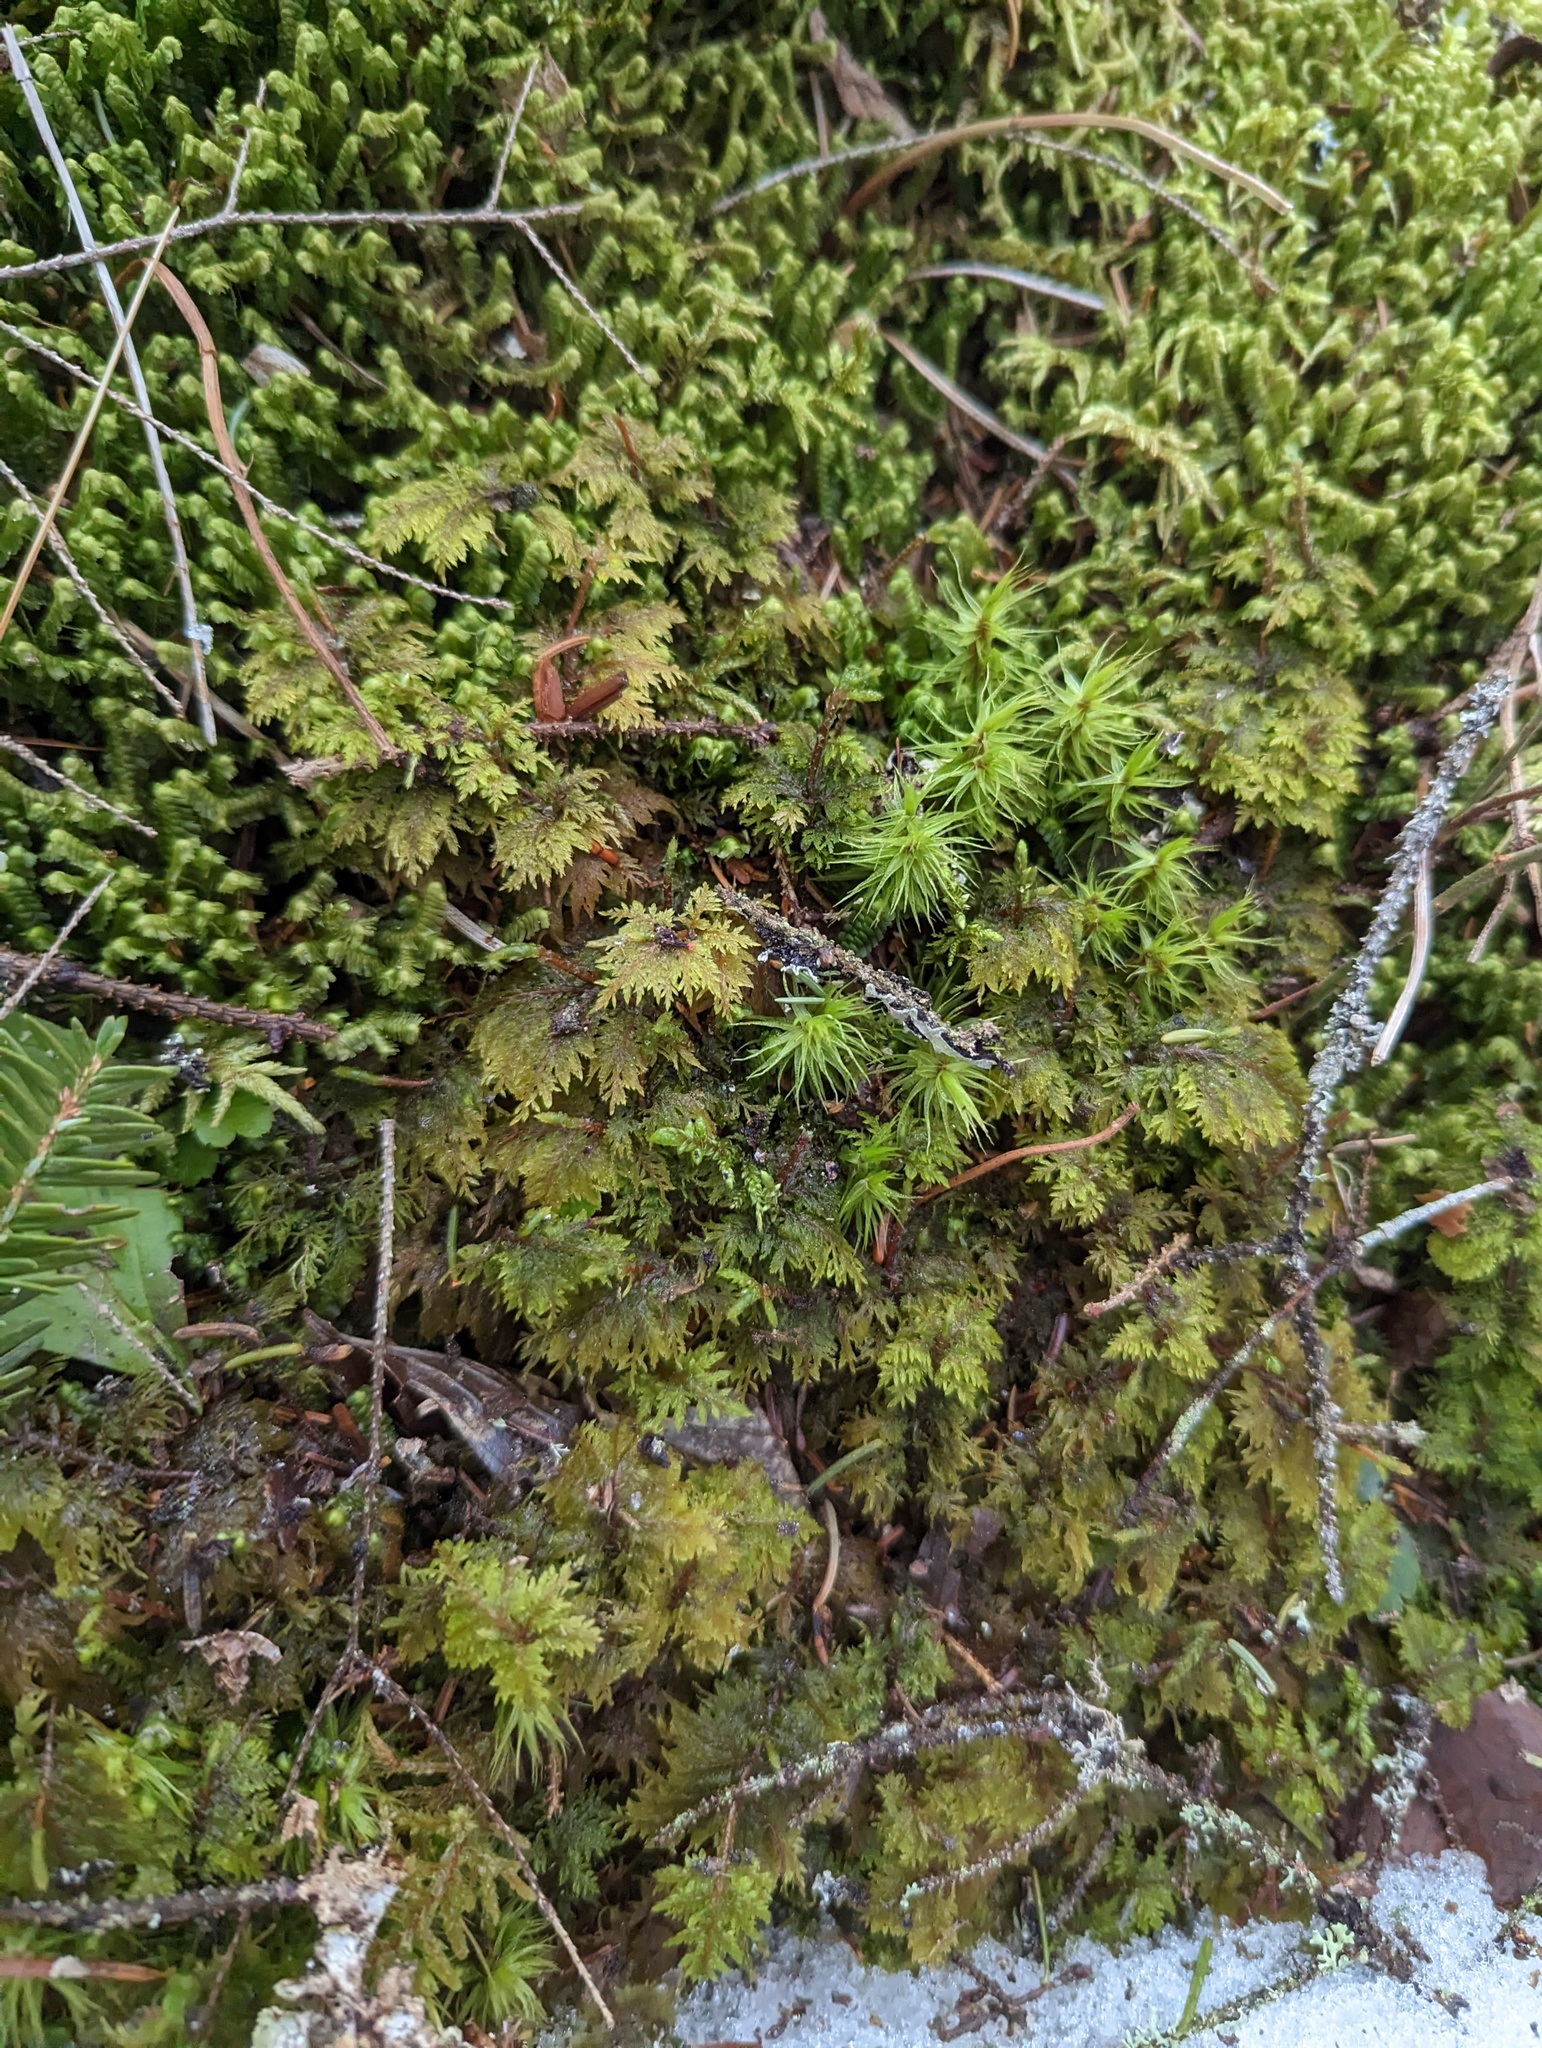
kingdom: Plantae
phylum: Bryophyta
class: Bryopsida
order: Hypnales
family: Hylocomiaceae
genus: Hylocomium
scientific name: Hylocomium splendens
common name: Stairstep moss
